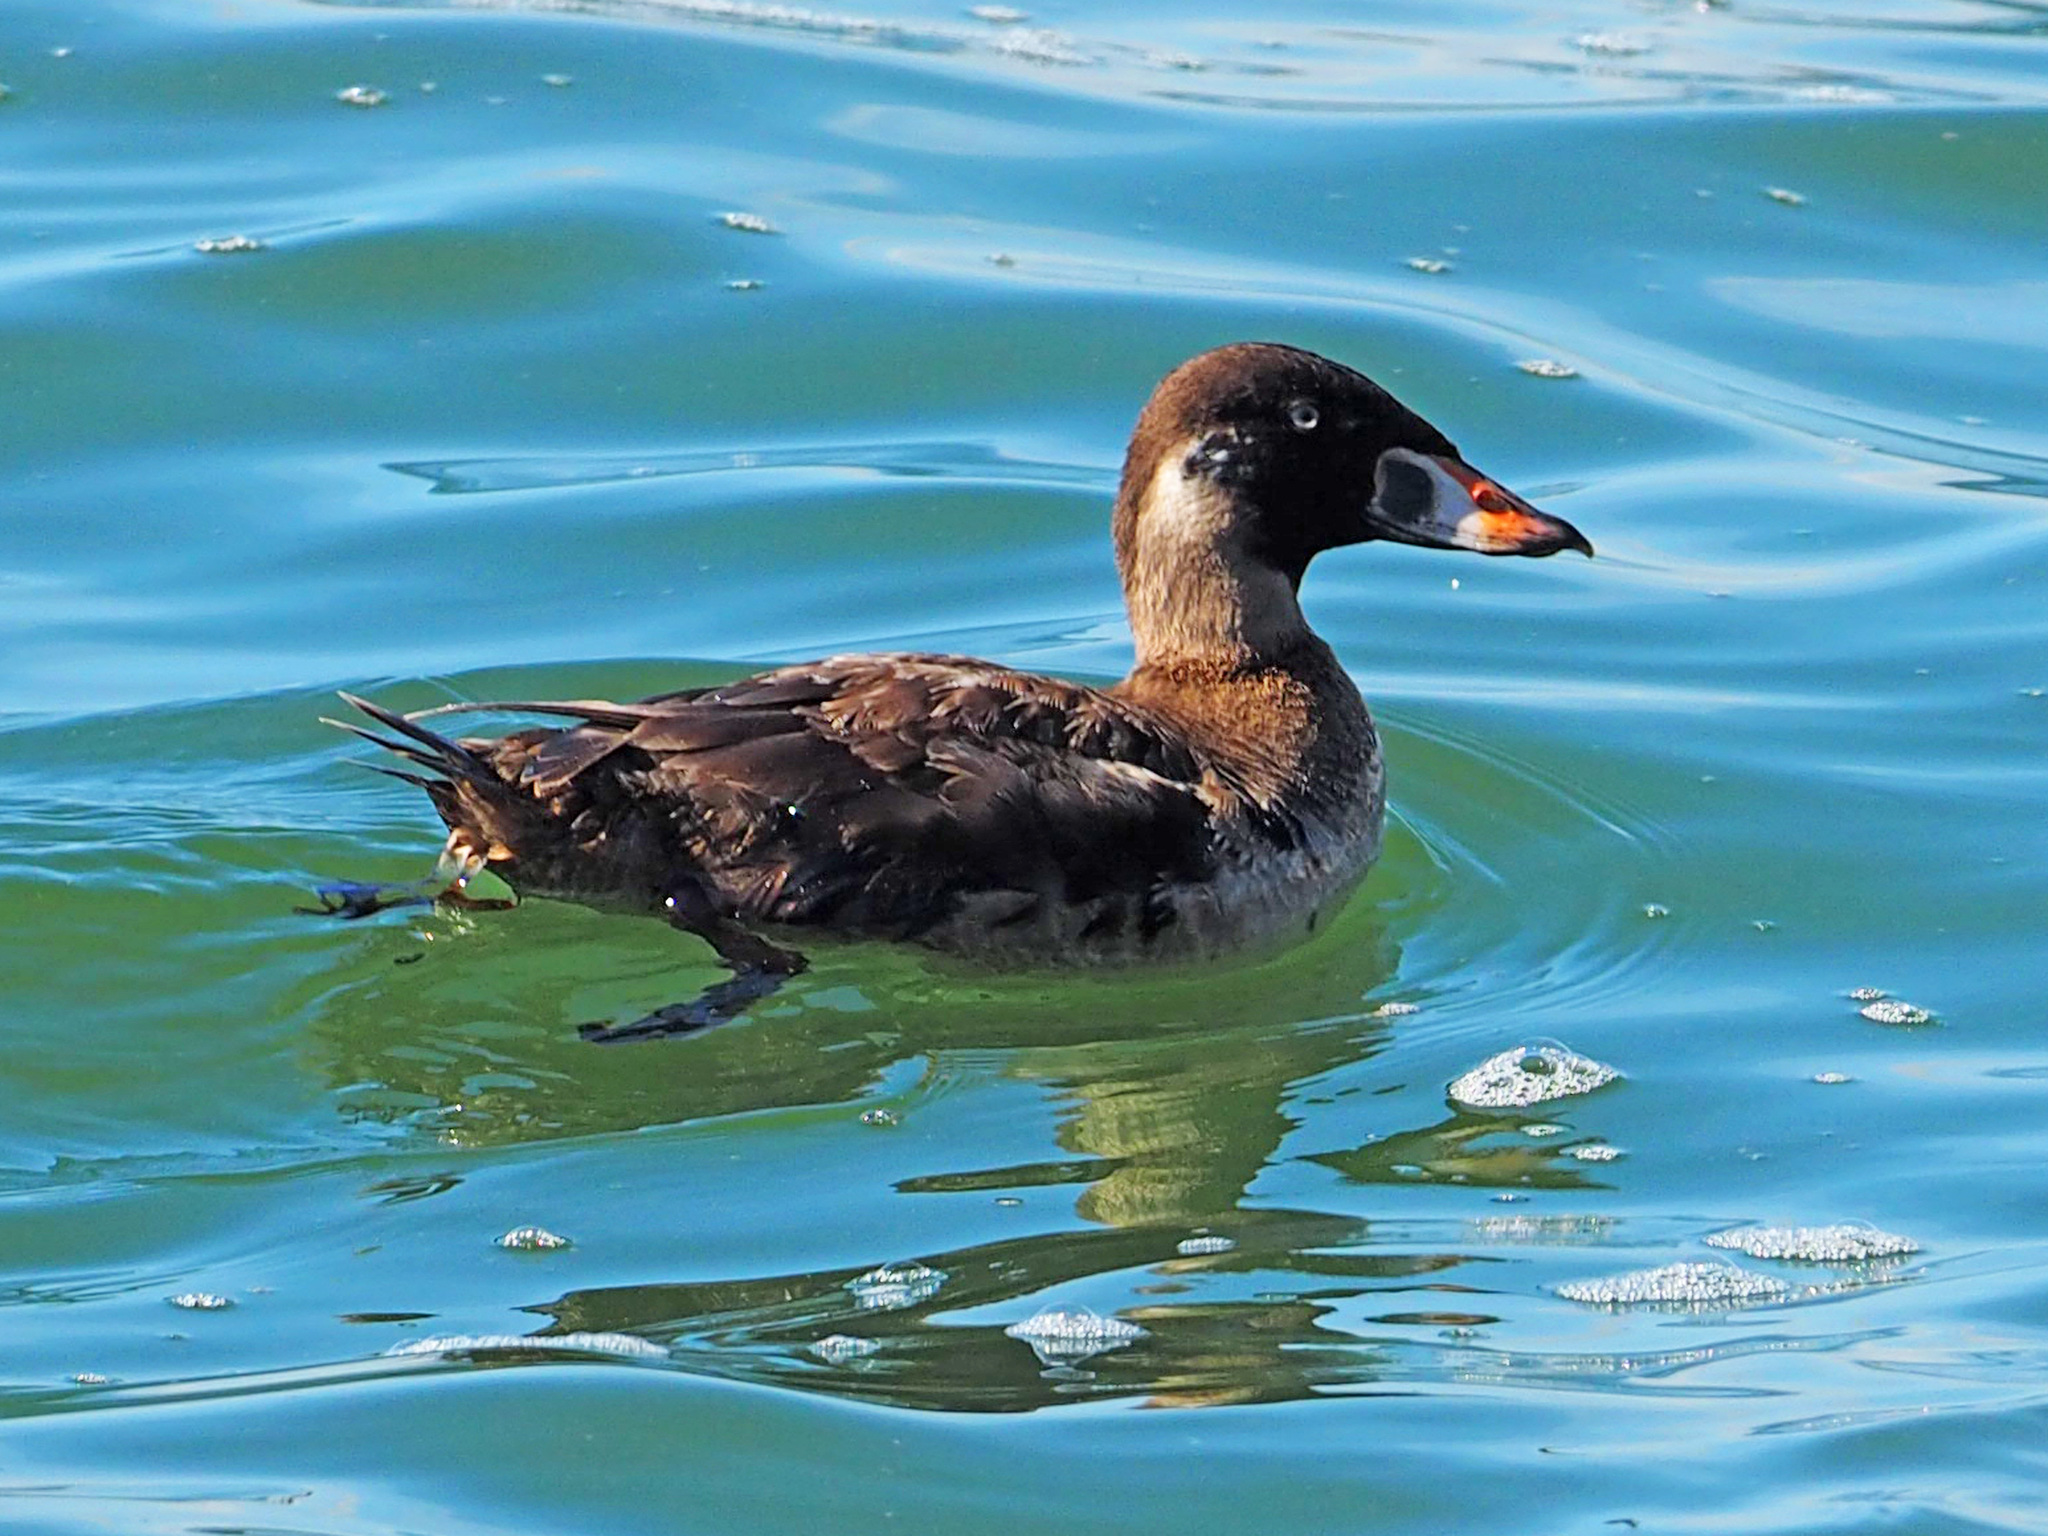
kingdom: Animalia
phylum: Chordata
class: Aves
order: Anseriformes
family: Anatidae
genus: Melanitta
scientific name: Melanitta perspicillata
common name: Surf scoter
